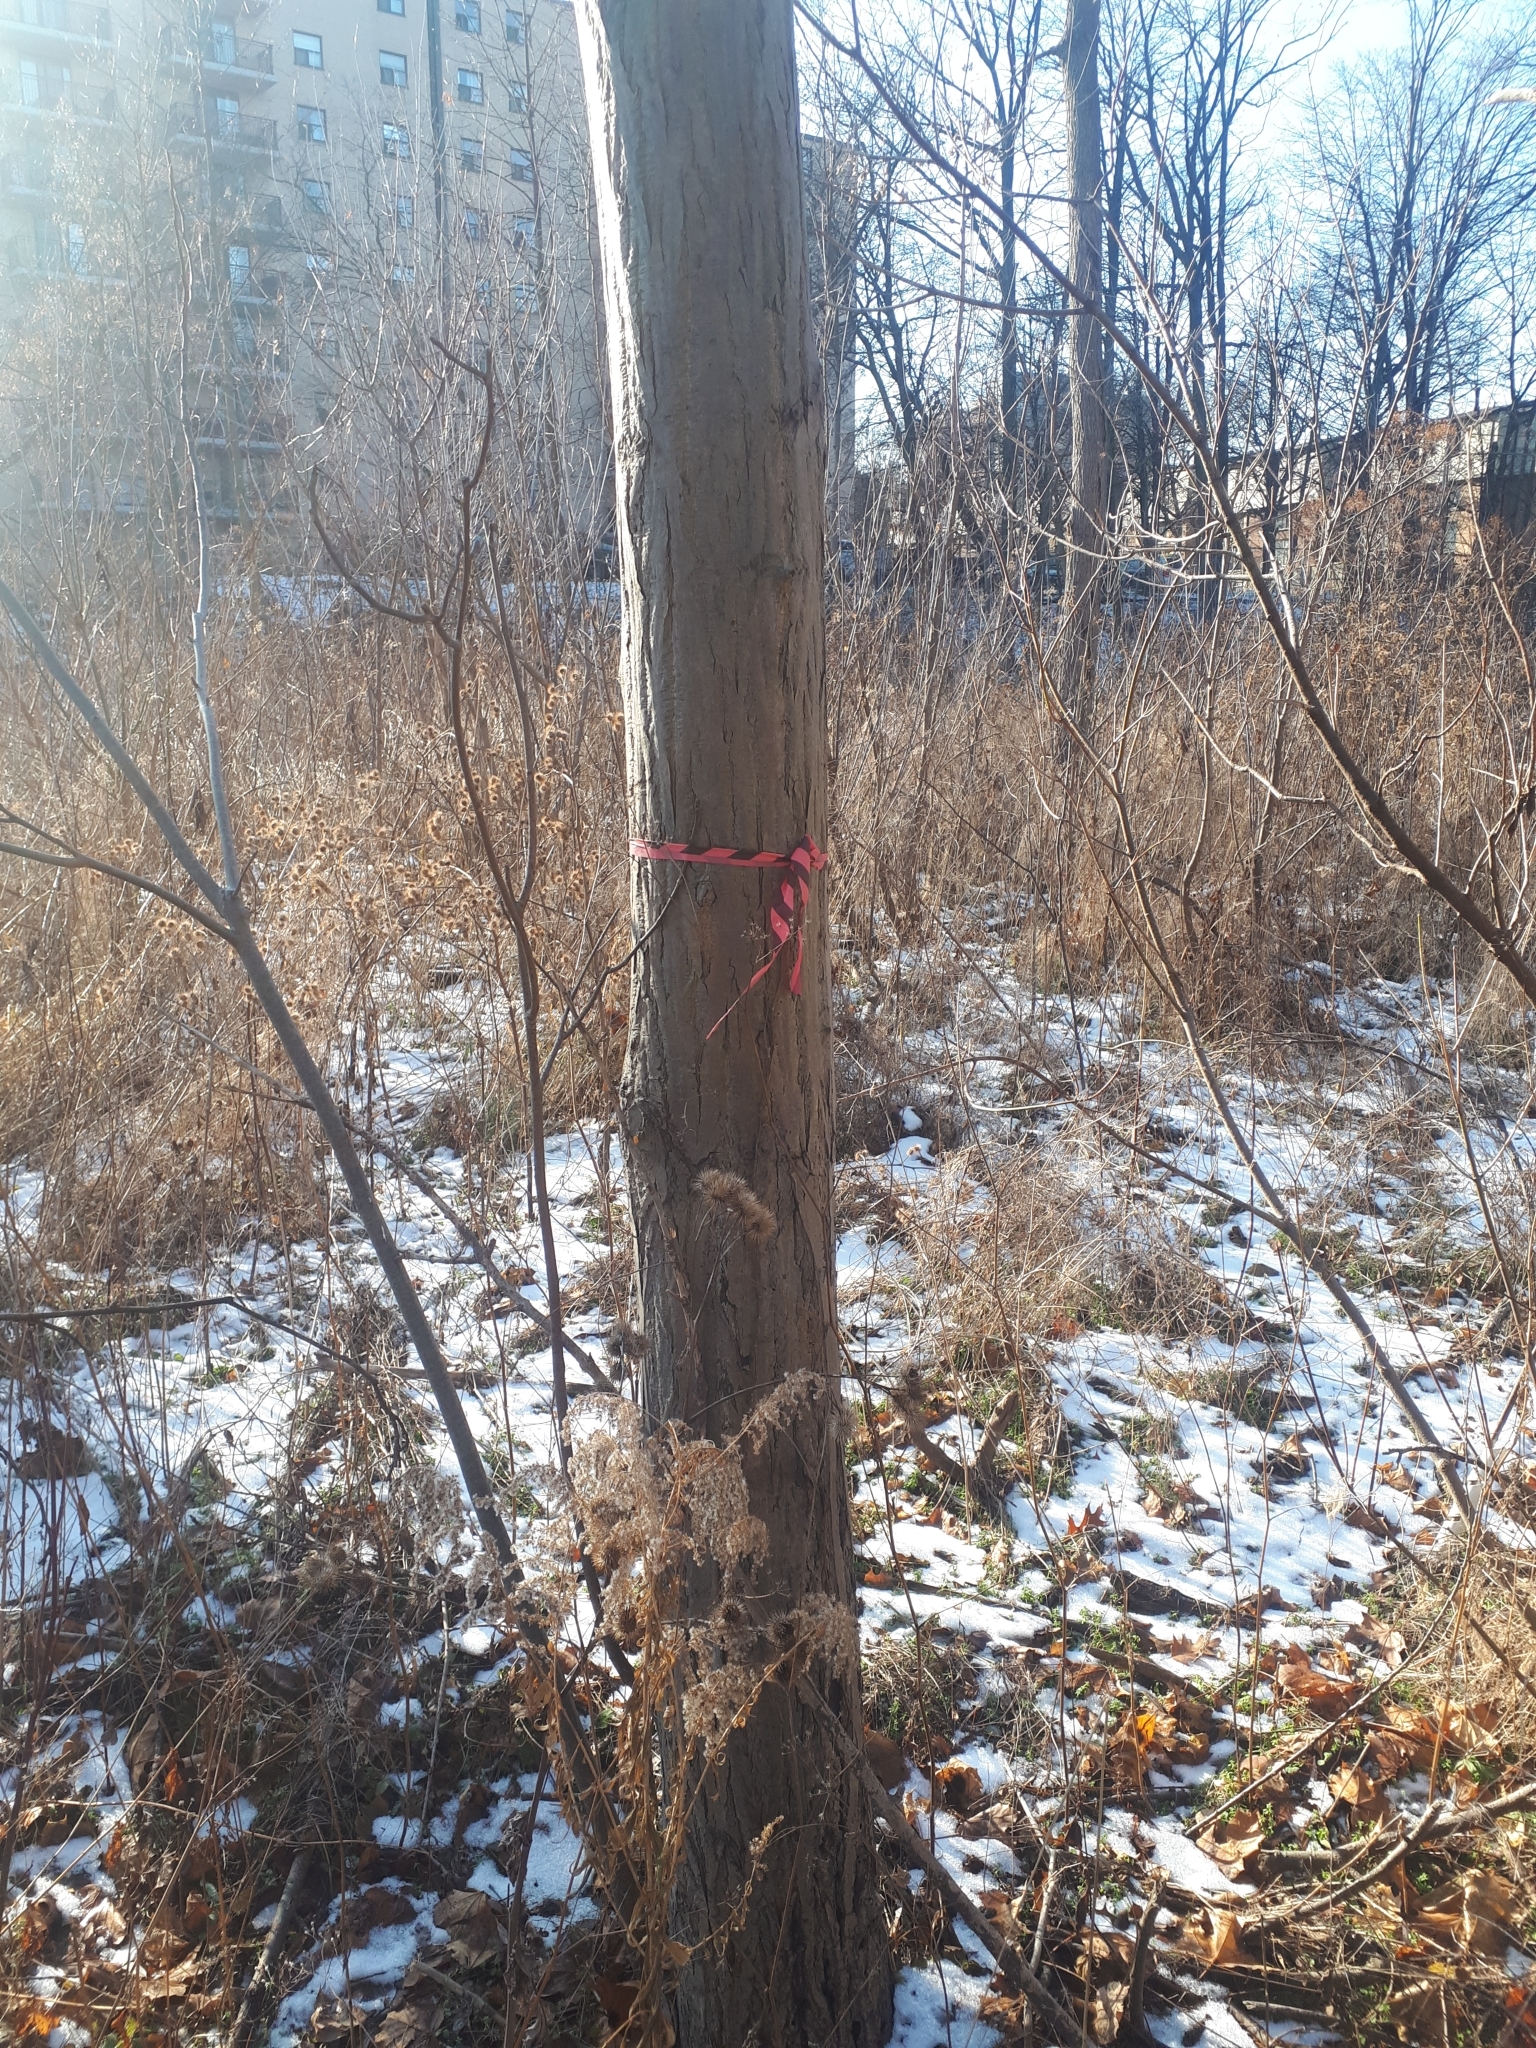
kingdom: Plantae
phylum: Tracheophyta
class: Magnoliopsida
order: Fagales
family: Juglandaceae
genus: Juglans
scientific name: Juglans cinerea
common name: Butternut
